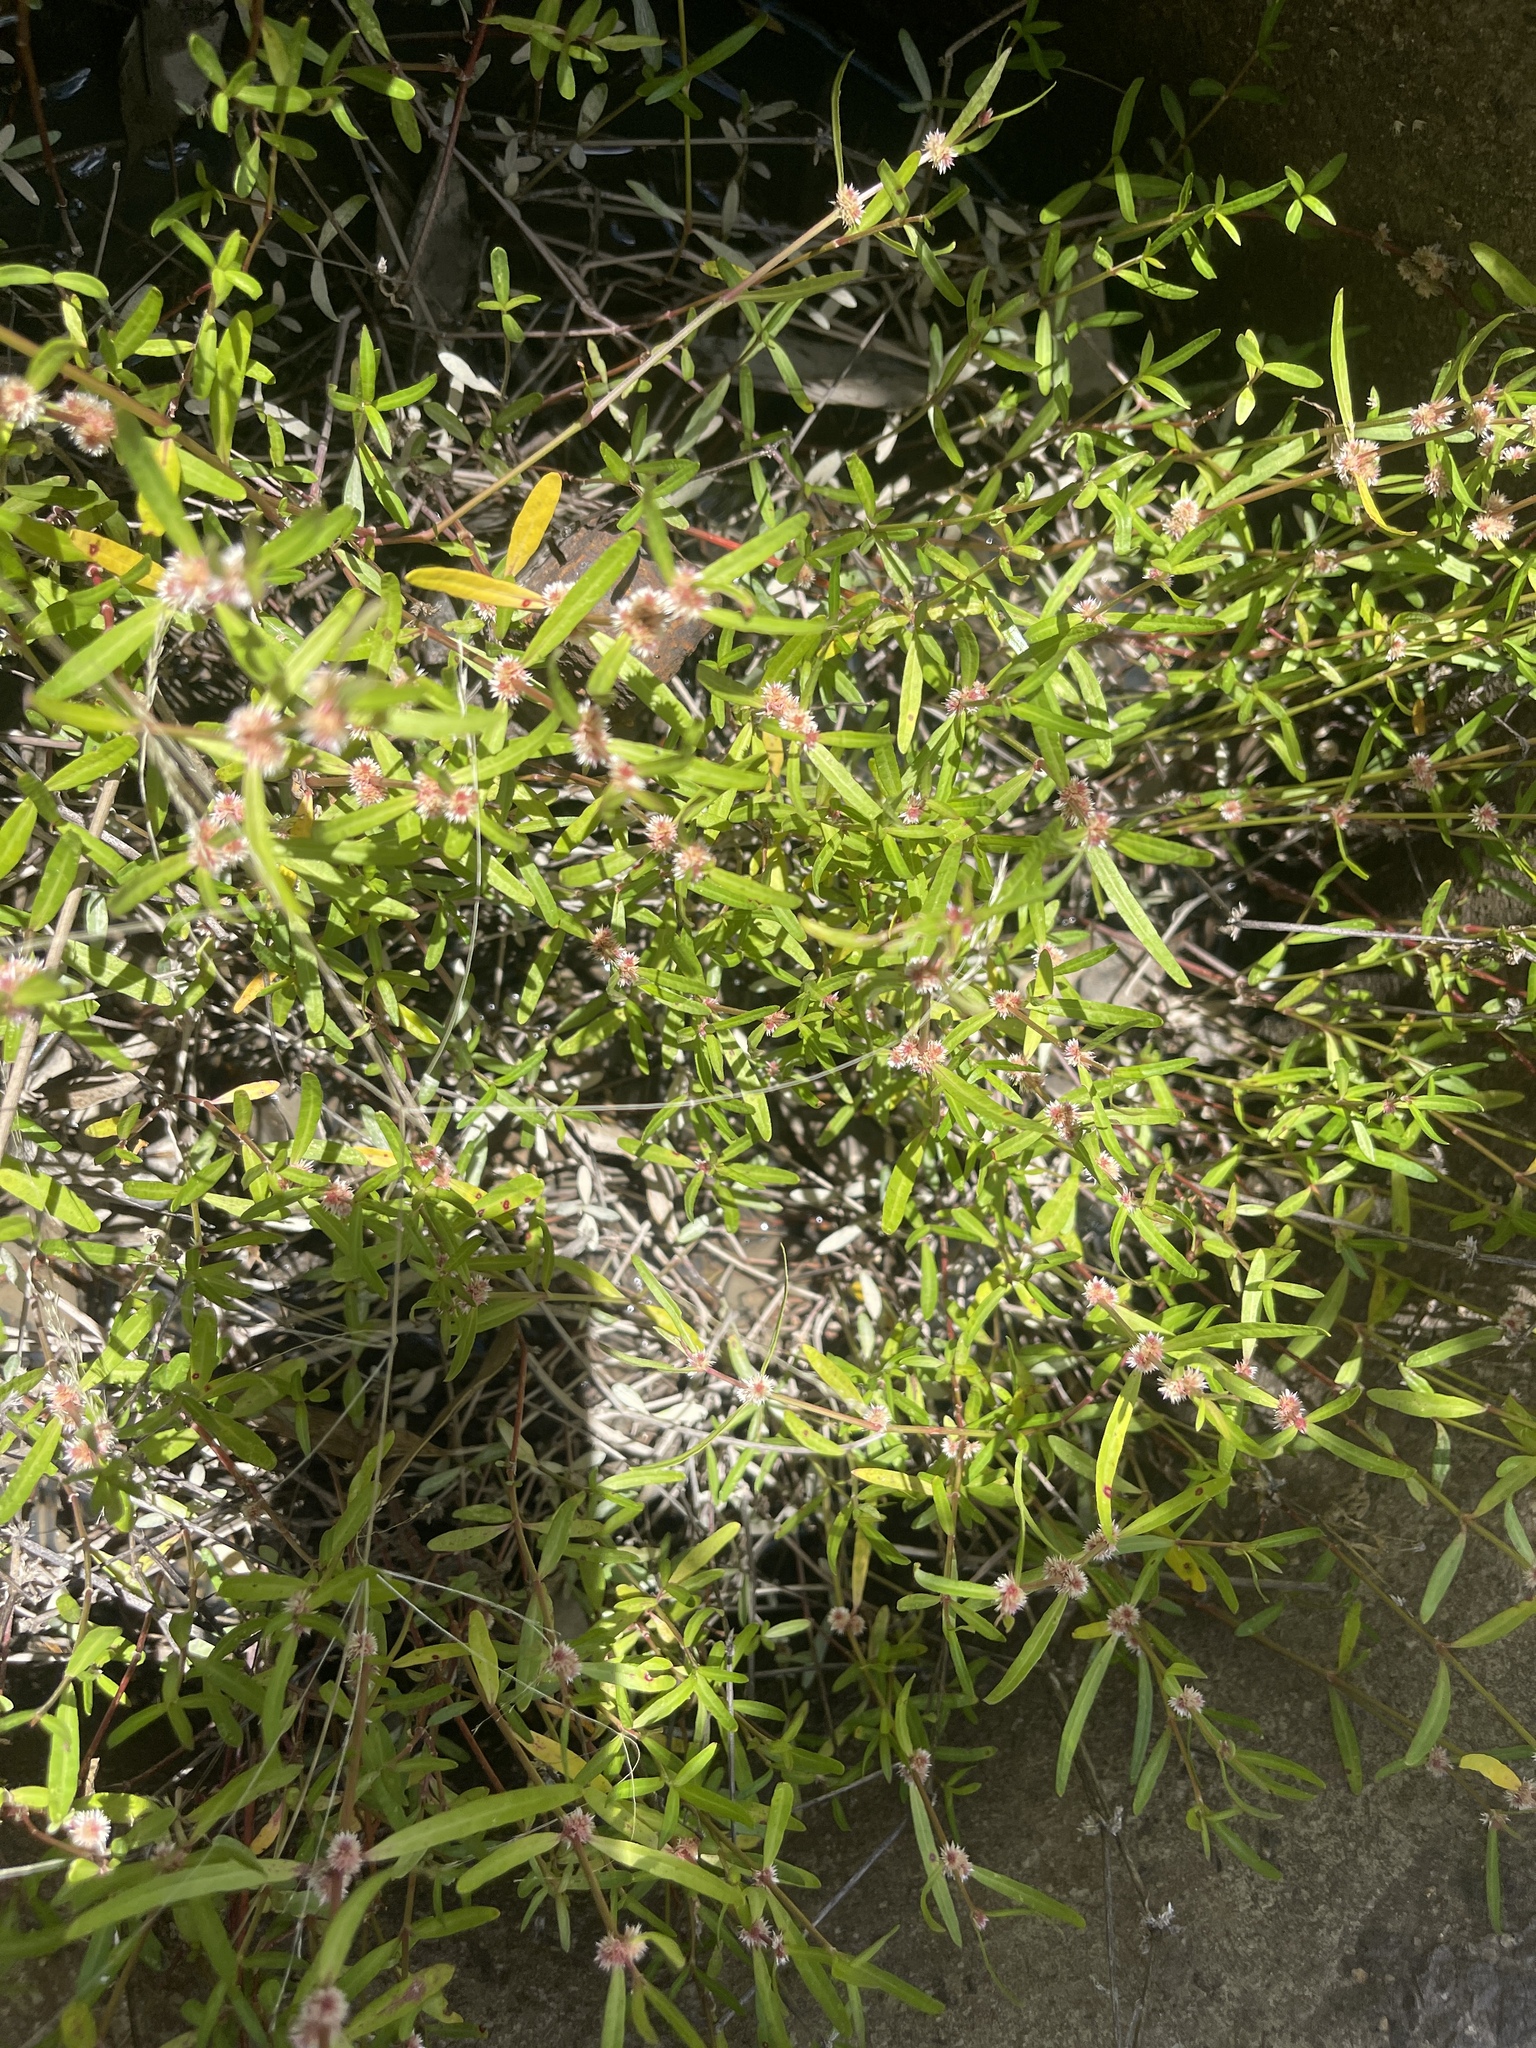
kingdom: Plantae
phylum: Tracheophyta
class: Magnoliopsida
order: Caryophyllales
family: Amaranthaceae
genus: Alternanthera
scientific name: Alternanthera denticulata
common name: Lesser joyweed
